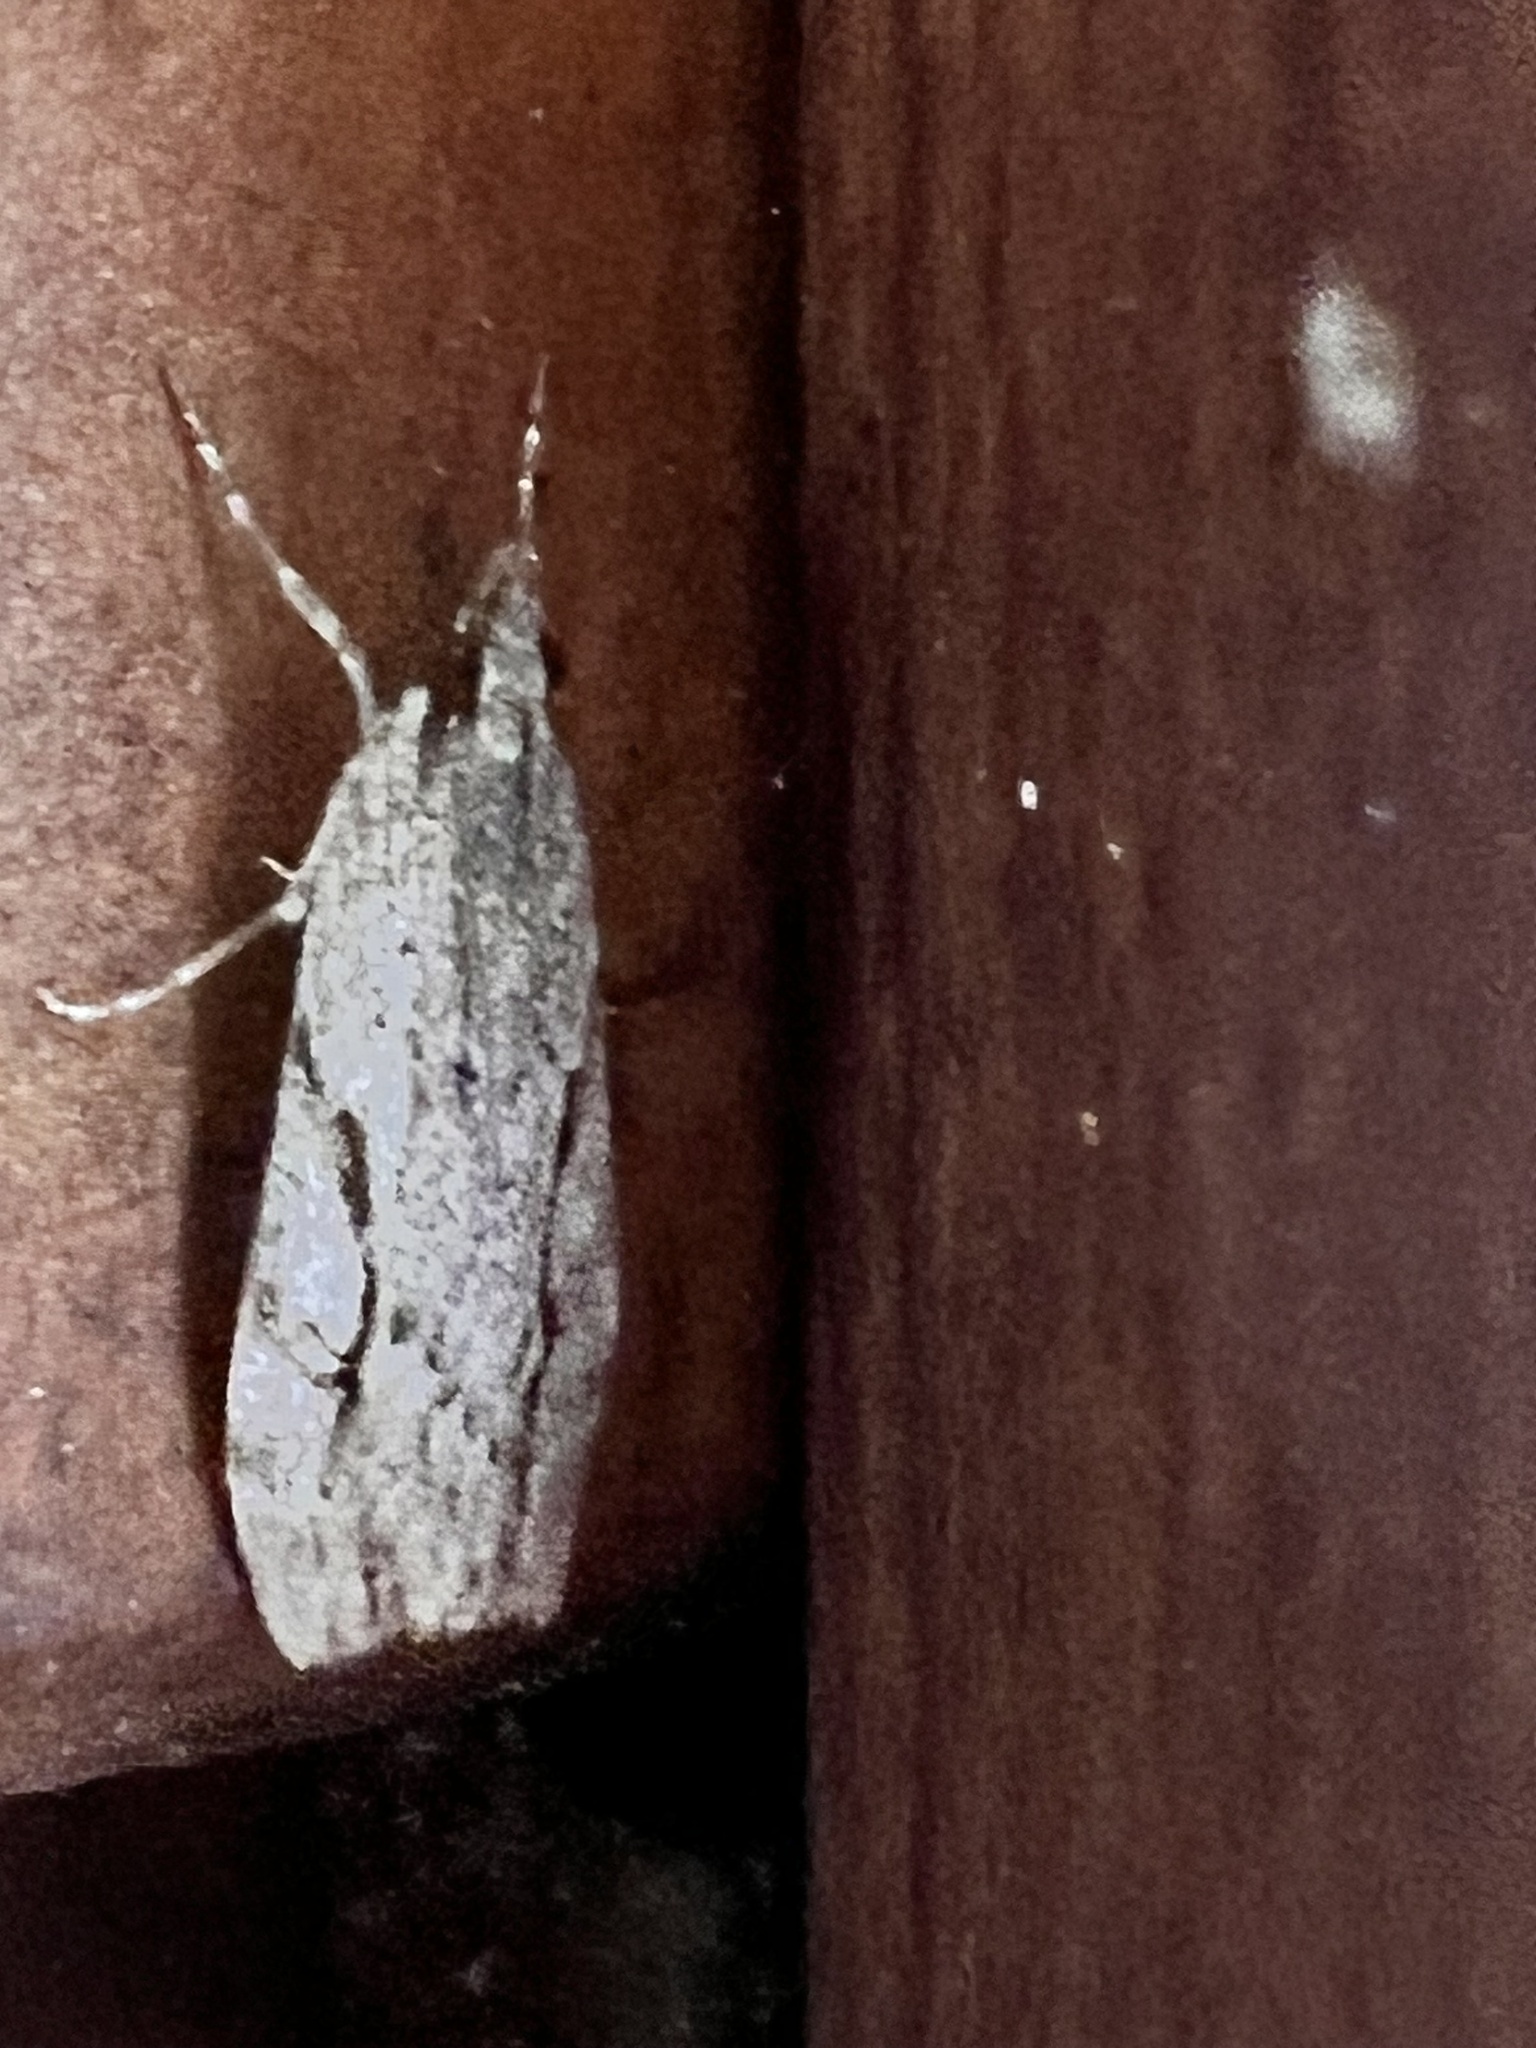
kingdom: Animalia
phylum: Arthropoda
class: Insecta
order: Lepidoptera
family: Crambidae
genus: Eudonia
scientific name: Eudonia bisinualis
